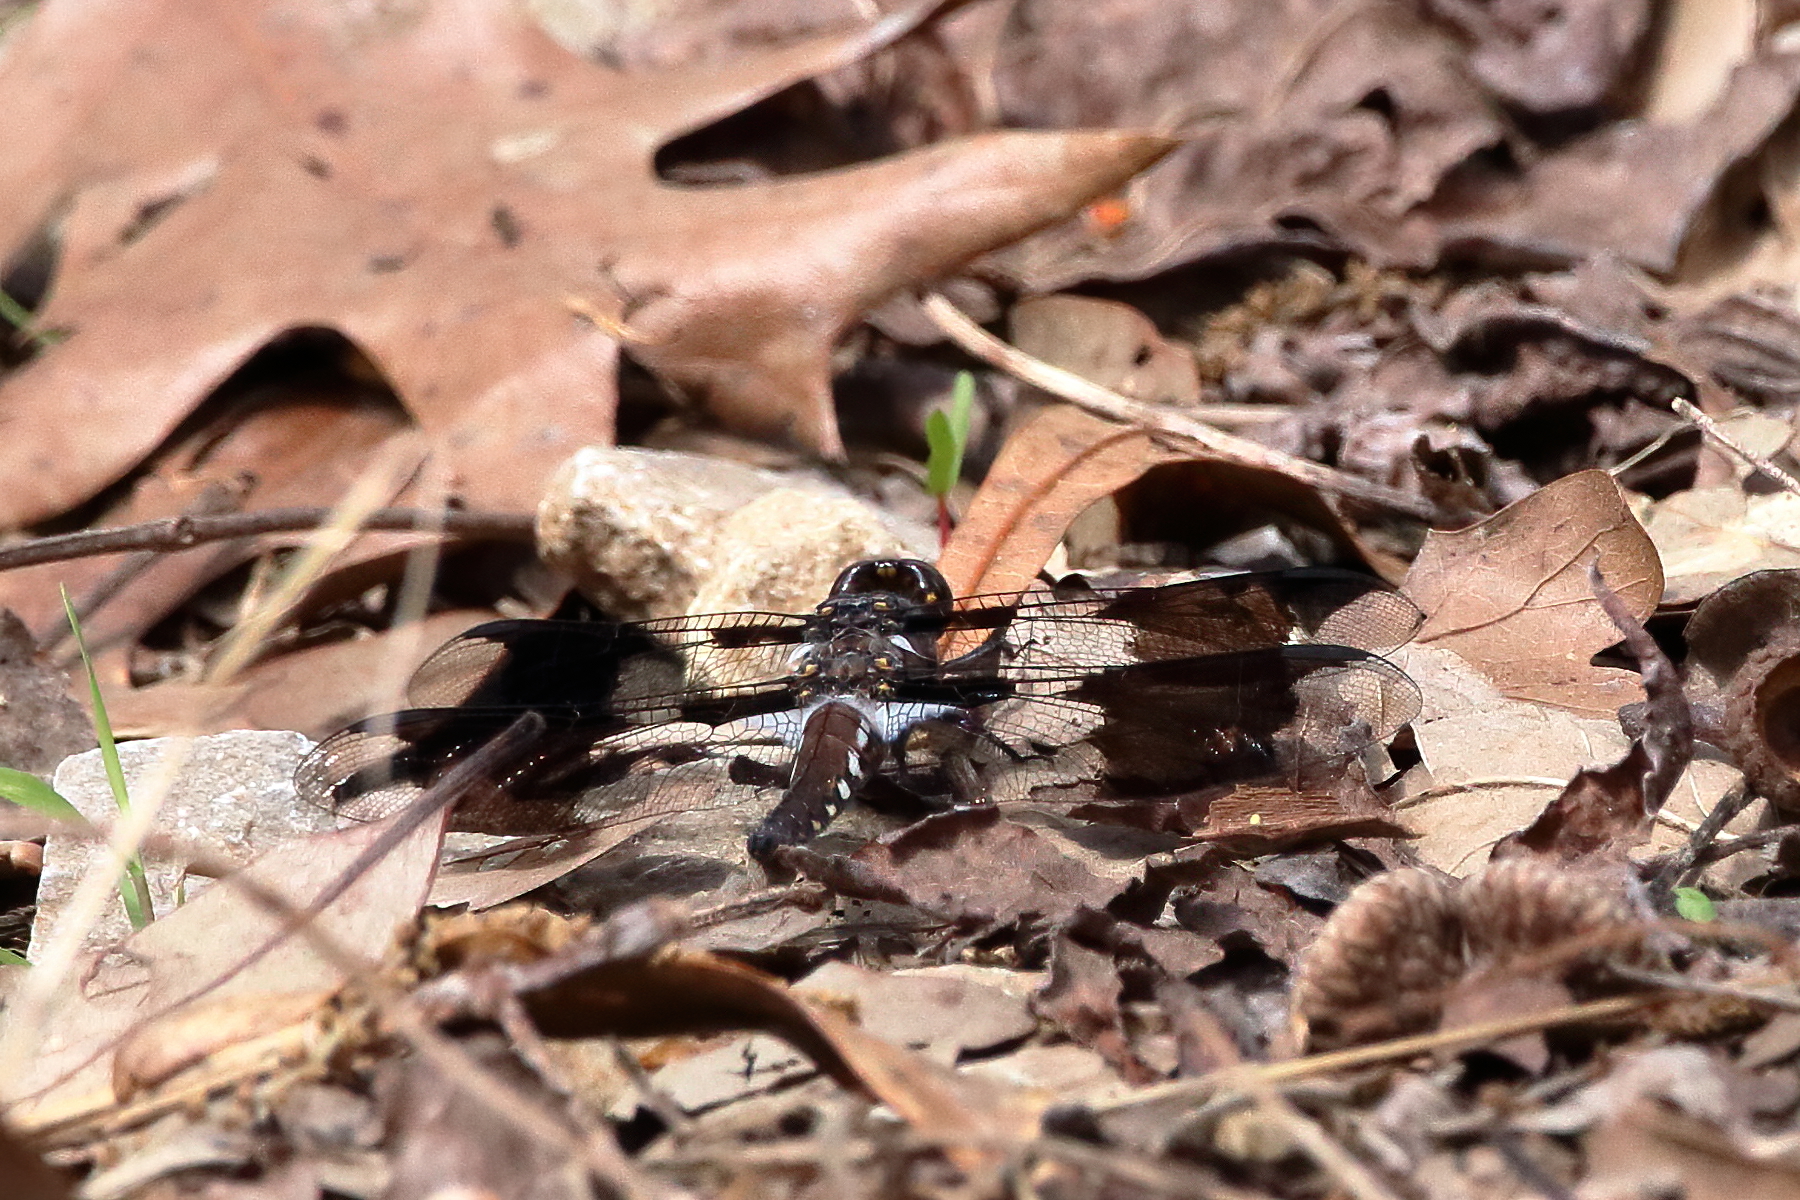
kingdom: Animalia
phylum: Arthropoda
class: Insecta
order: Odonata
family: Libellulidae
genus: Plathemis
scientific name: Plathemis lydia
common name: Common whitetail
